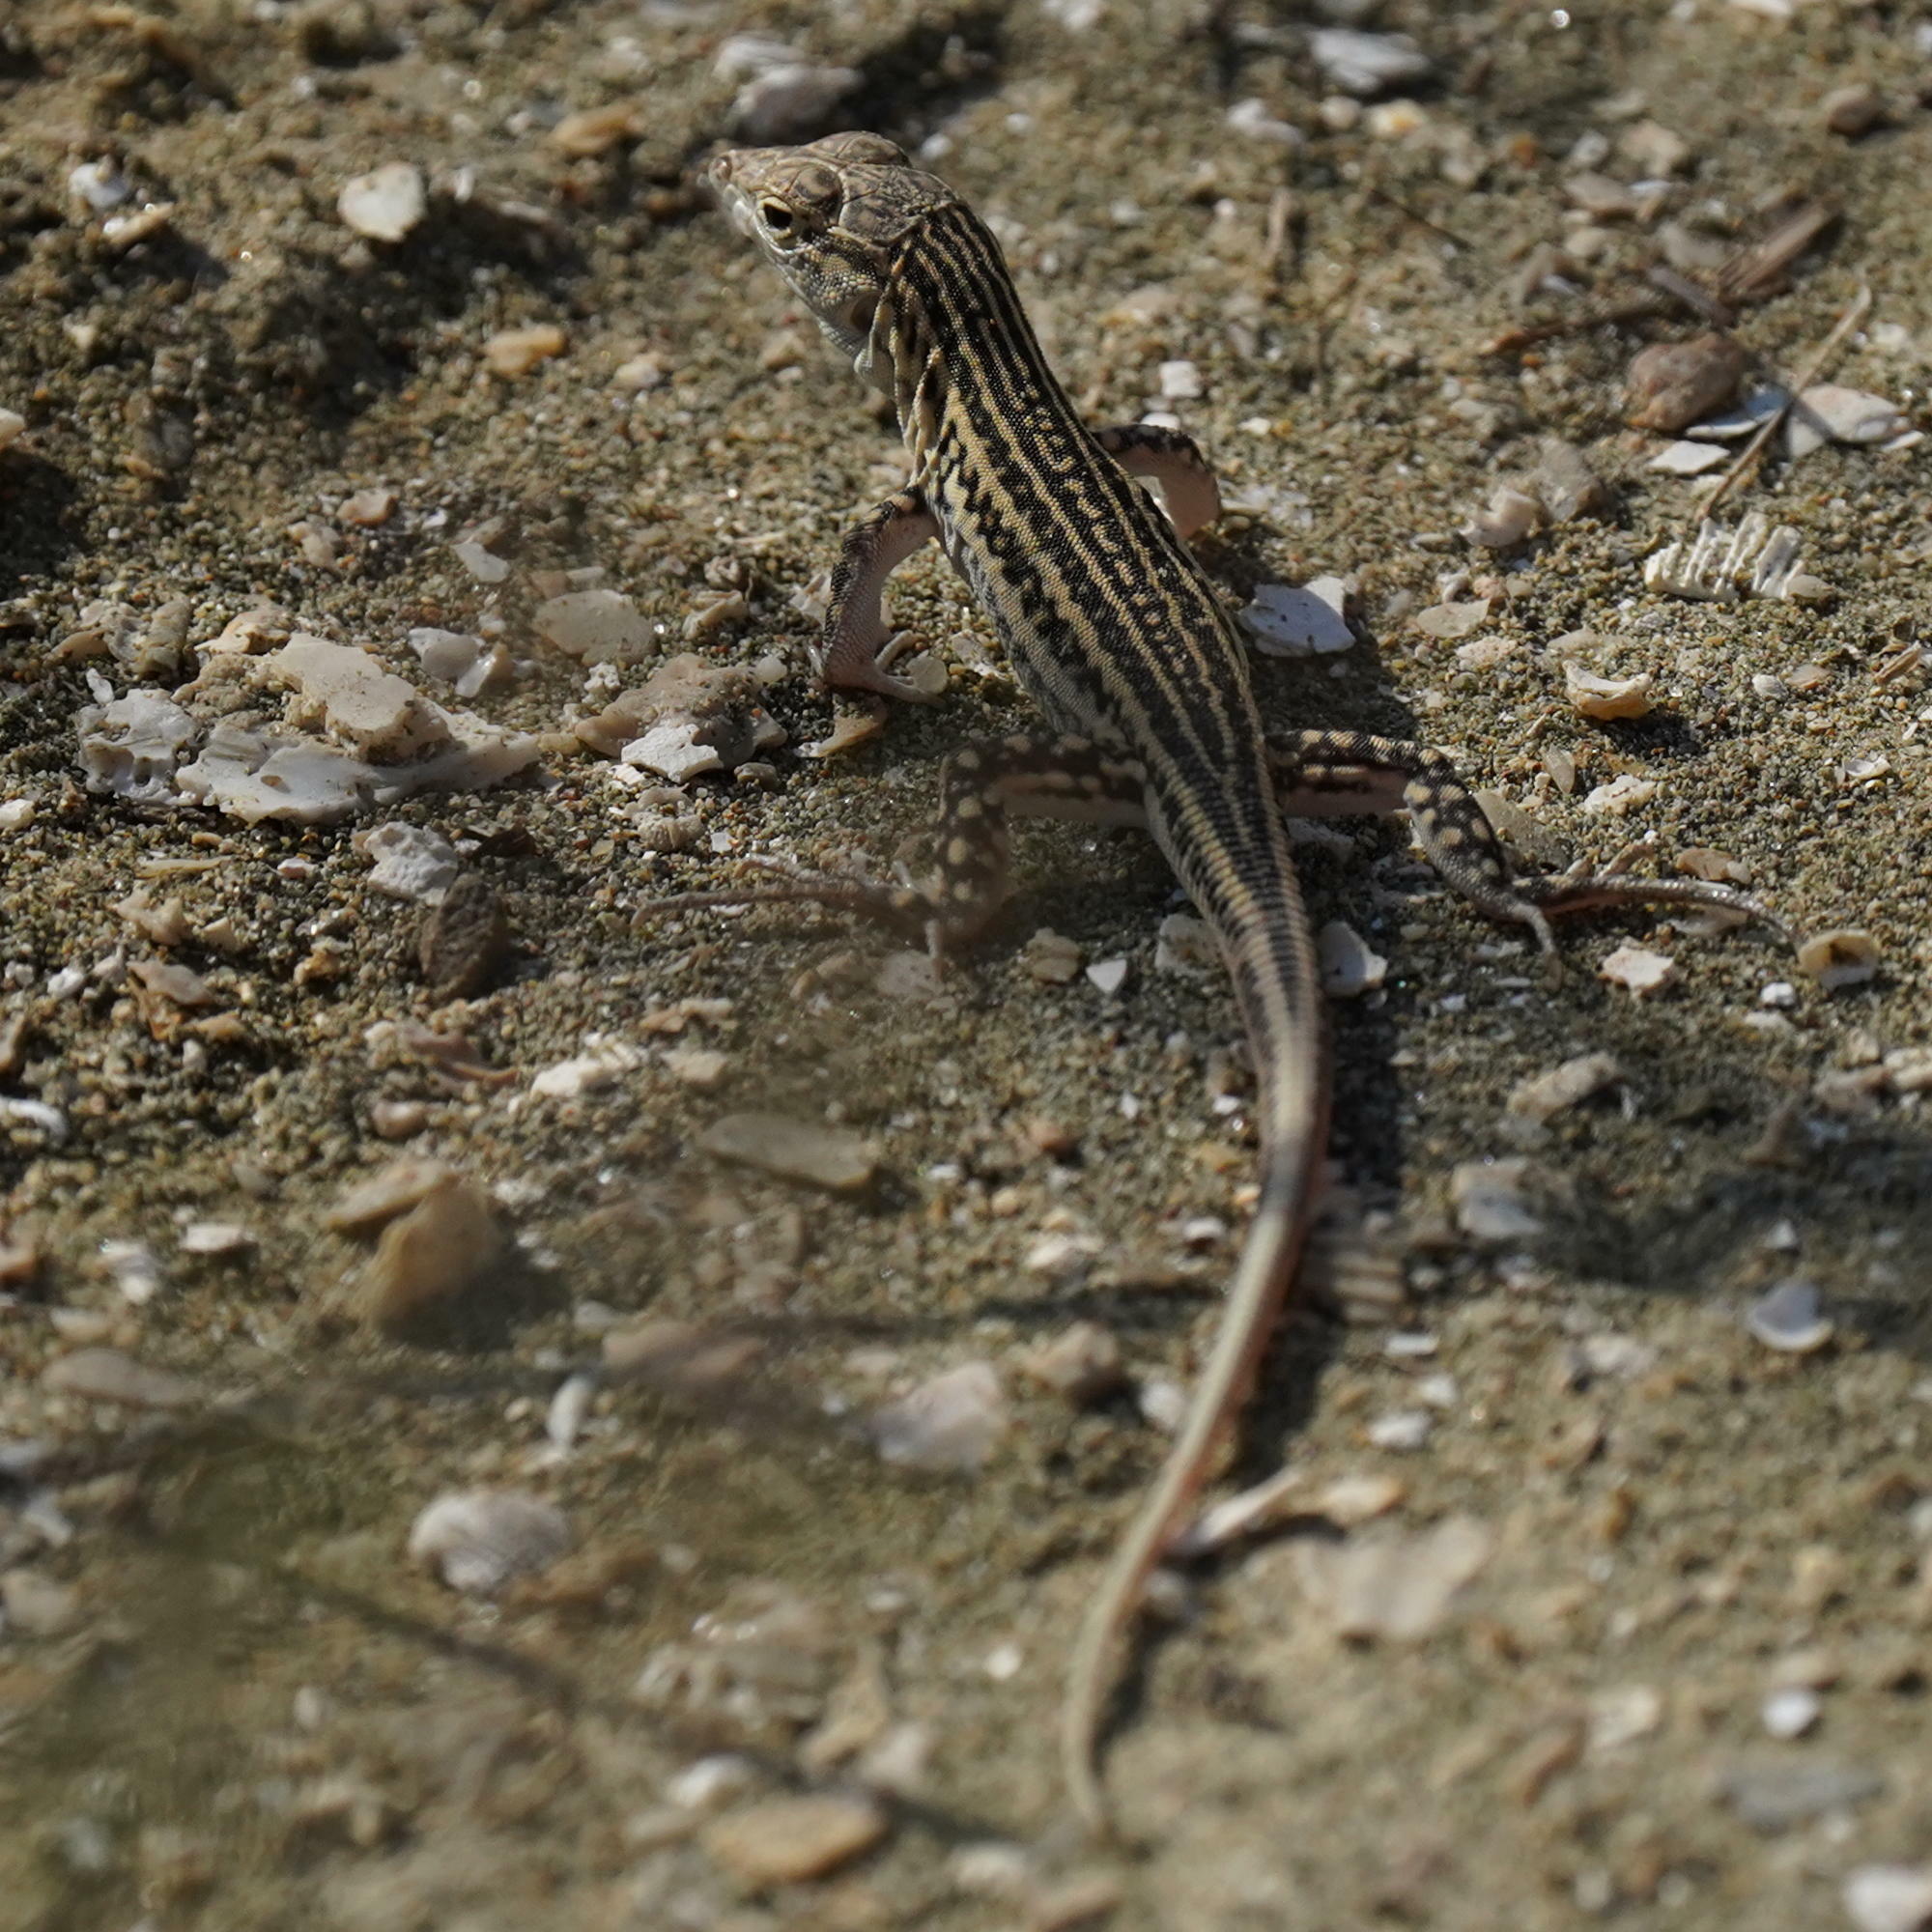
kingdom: Animalia
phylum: Chordata
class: Squamata
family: Lacertidae
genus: Acanthodactylus
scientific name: Acanthodactylus schreiberi
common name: Schreiber's fringe-fingered lizard
